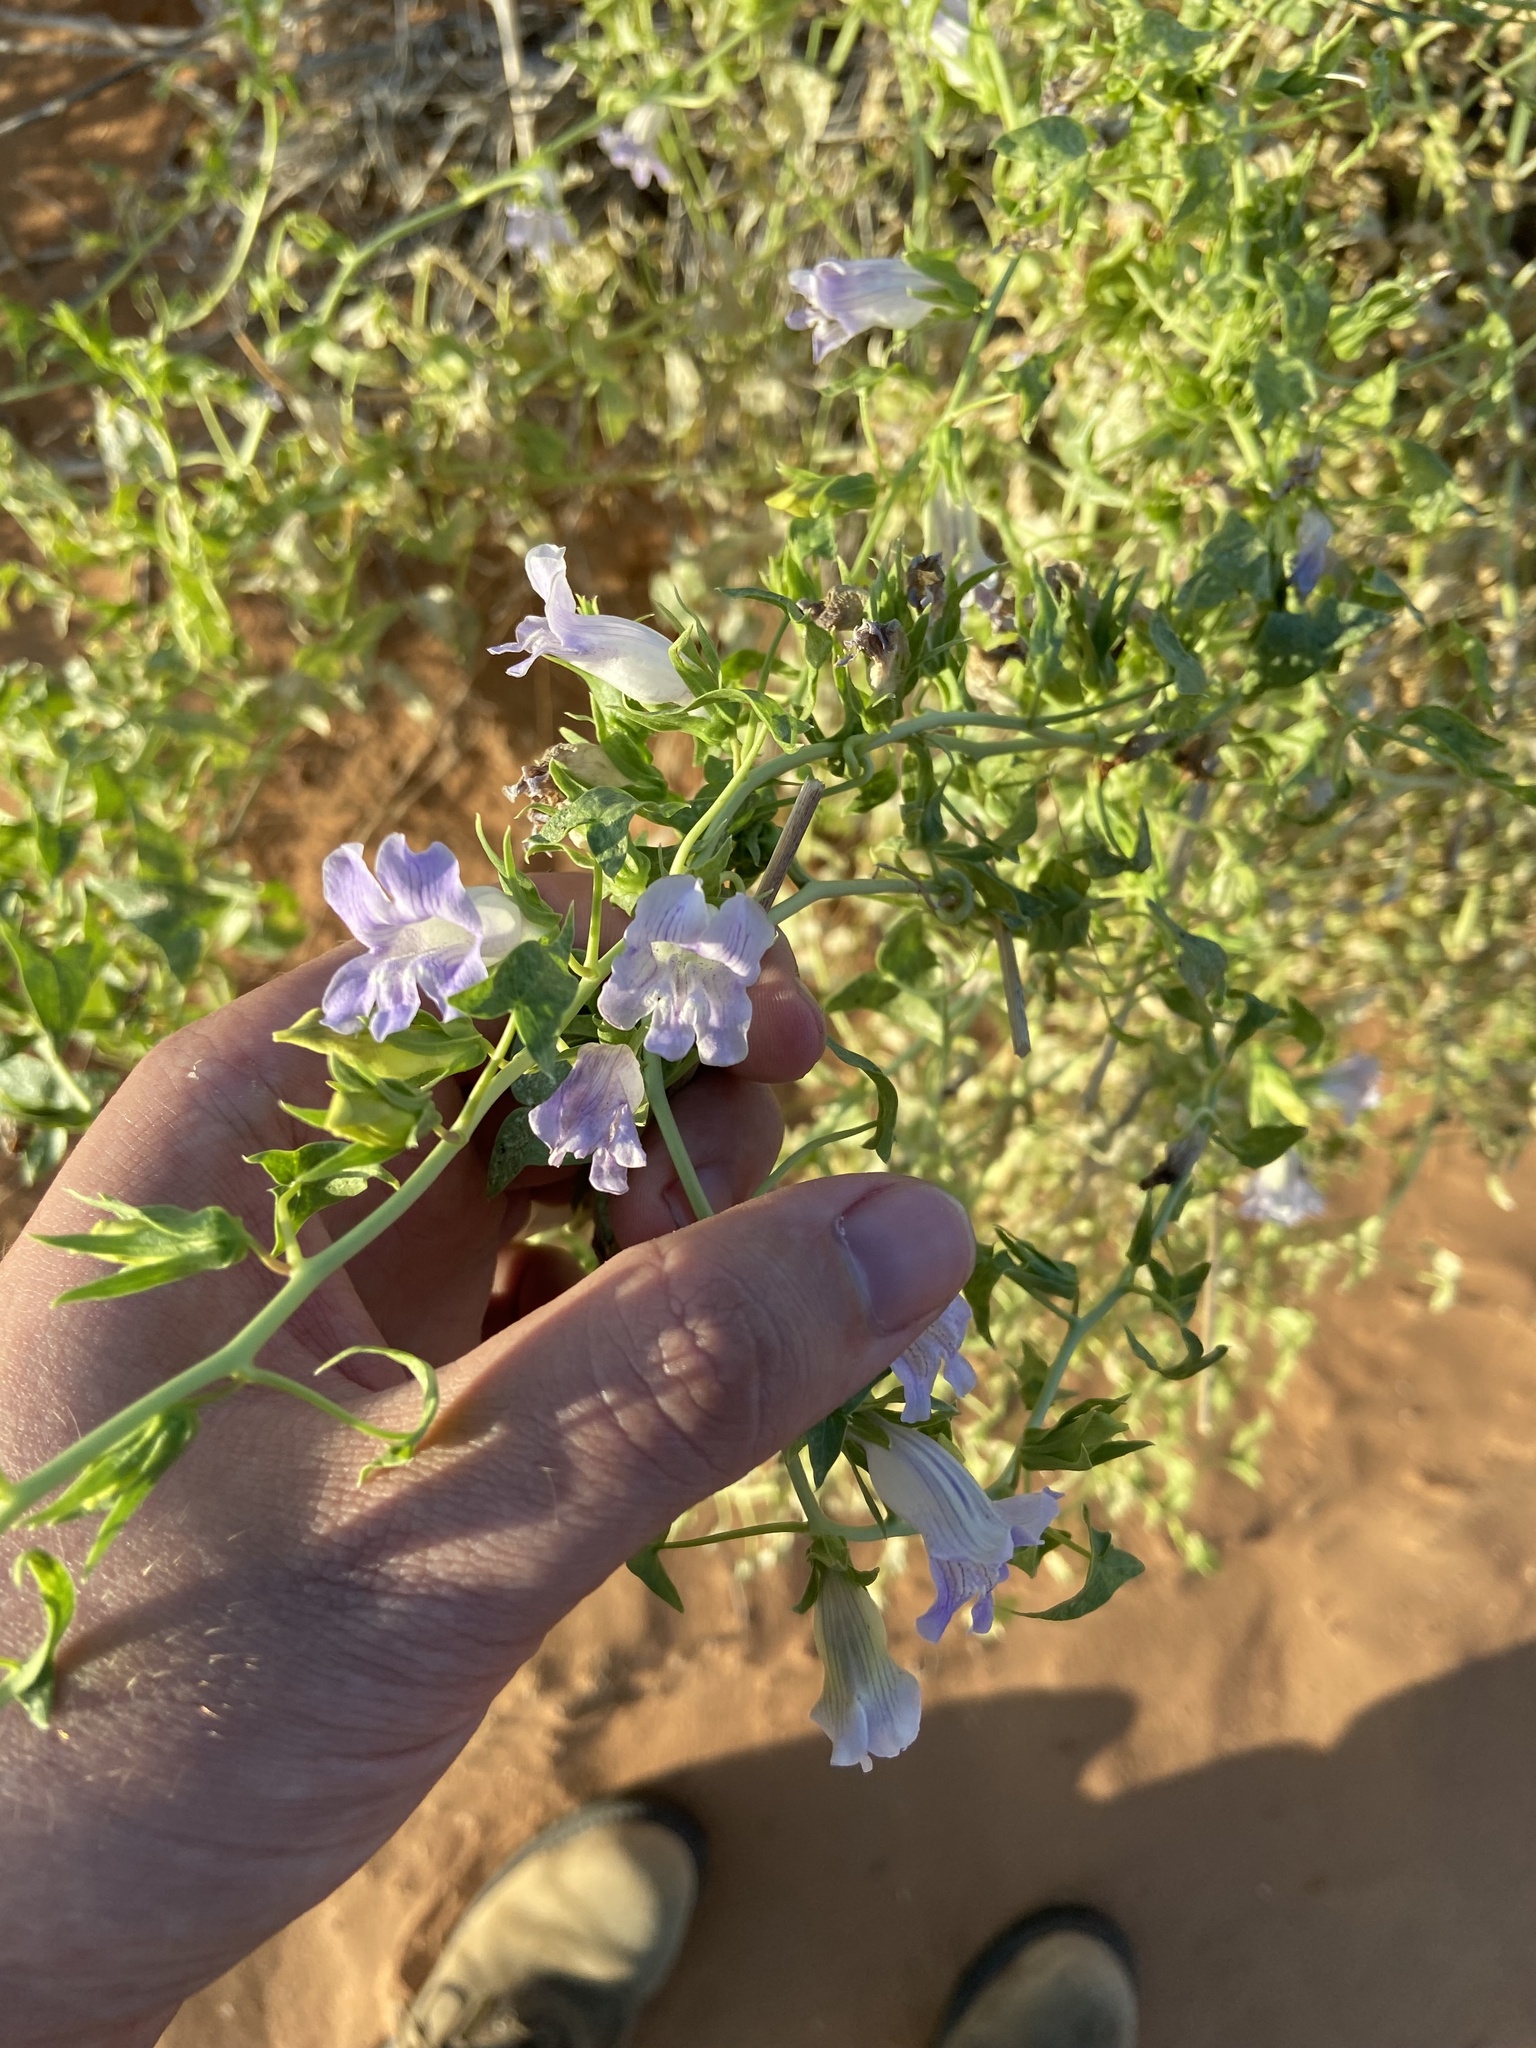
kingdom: Plantae
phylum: Tracheophyta
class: Magnoliopsida
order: Lamiales
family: Plantaginaceae
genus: Epixiphium
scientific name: Epixiphium wislizeni
